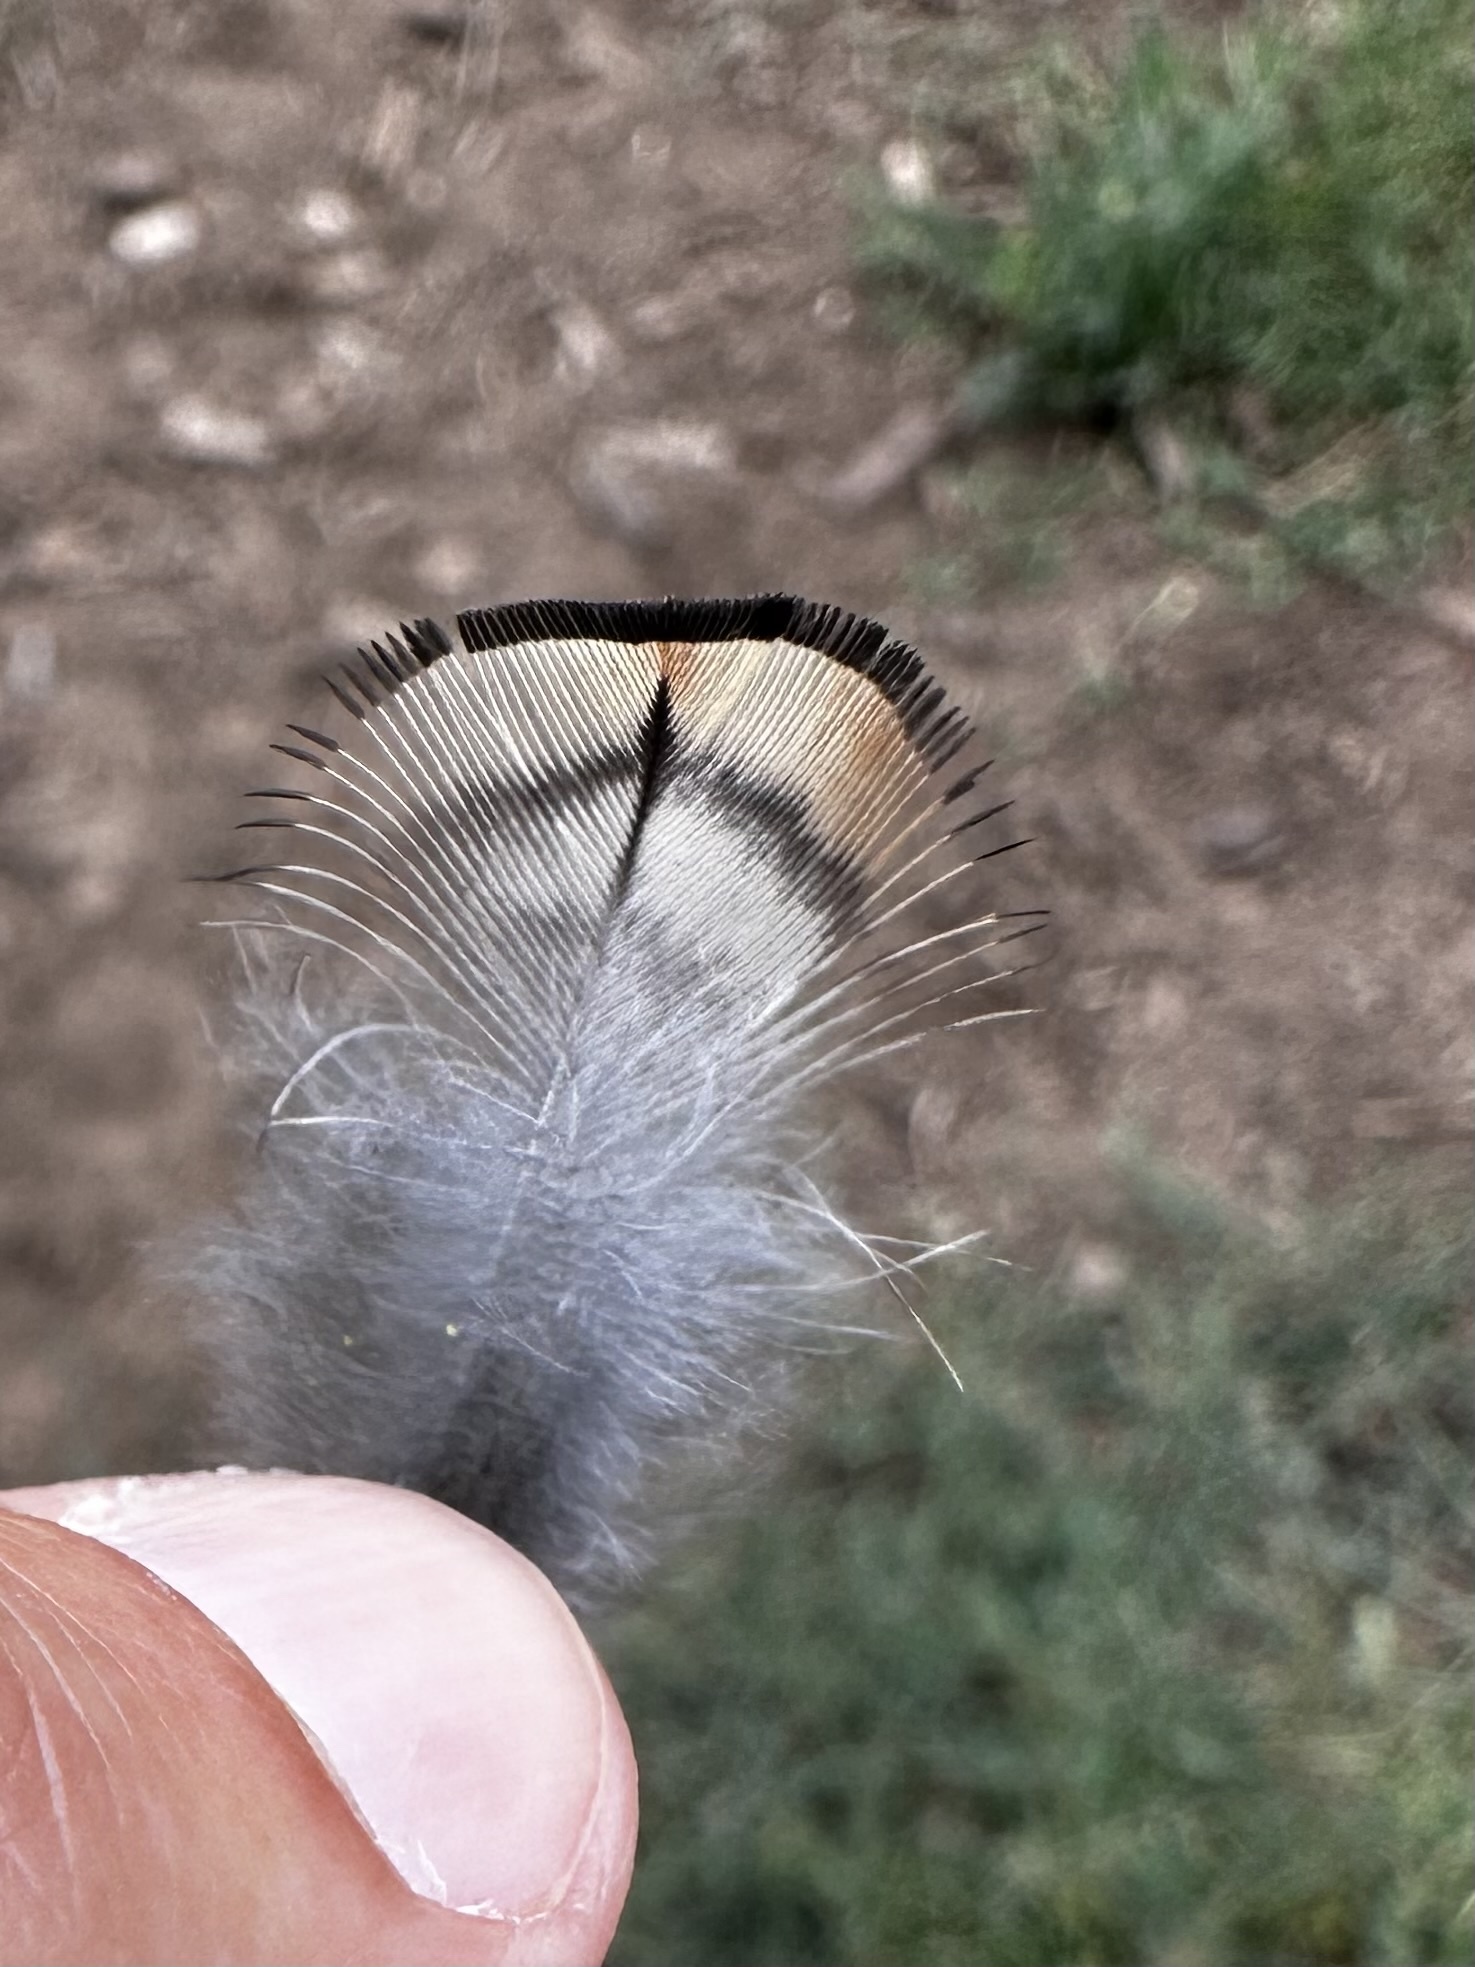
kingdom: Animalia
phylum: Chordata
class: Aves
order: Galliformes
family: Odontophoridae
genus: Callipepla
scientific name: Callipepla californica
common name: California quail
